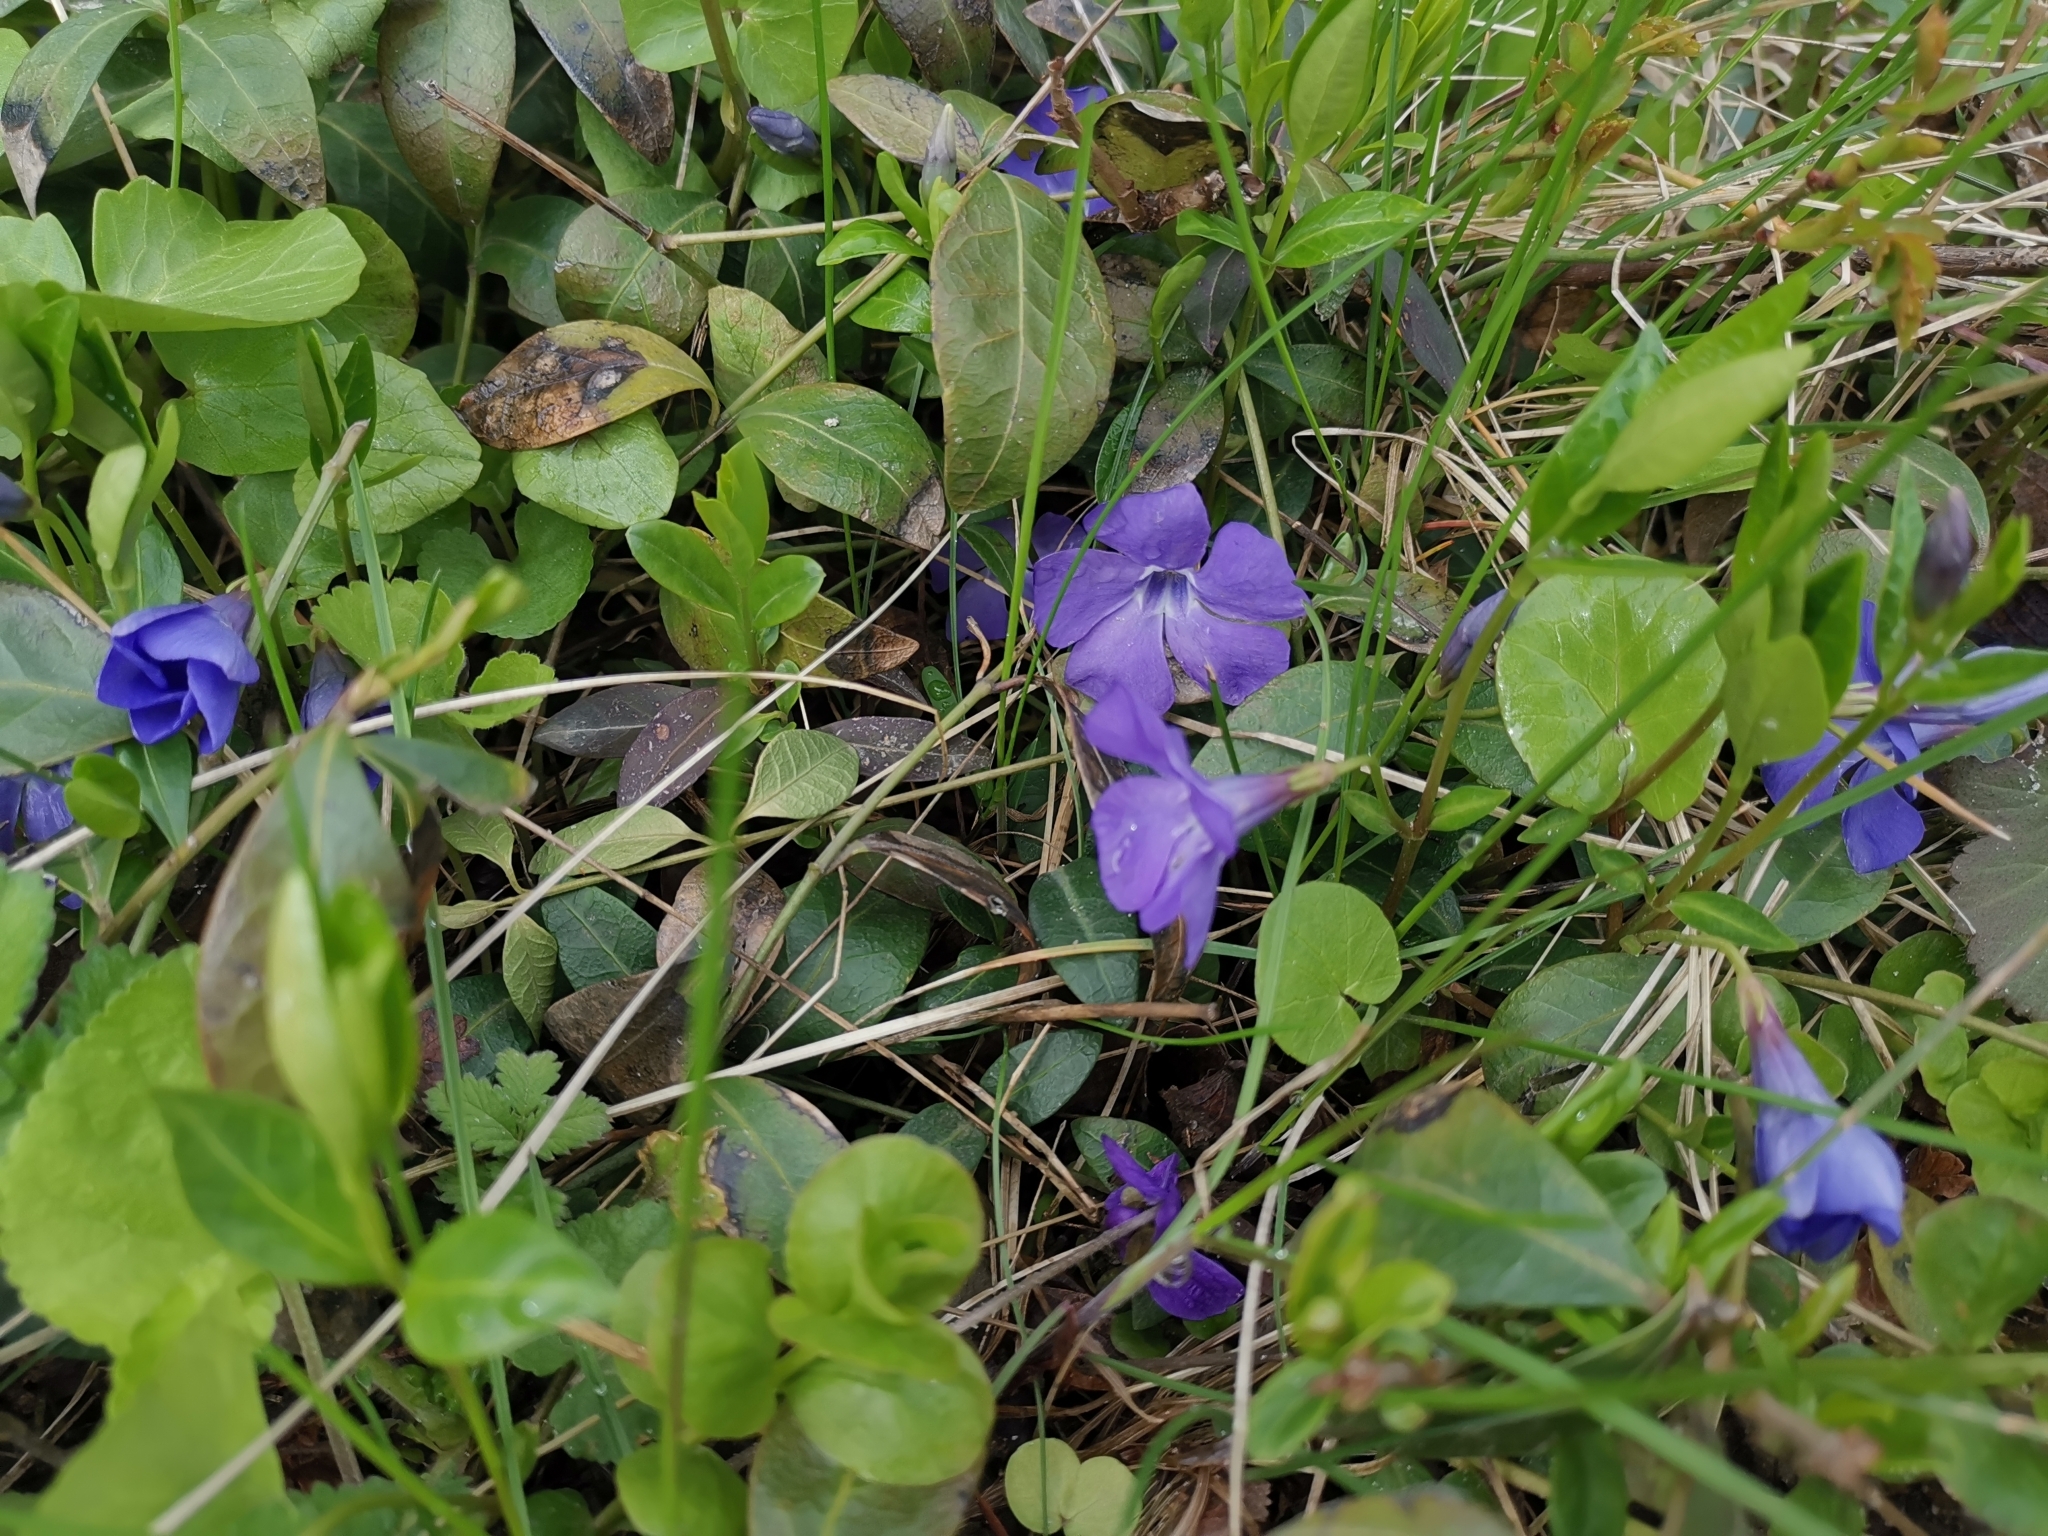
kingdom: Plantae
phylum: Tracheophyta
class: Magnoliopsida
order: Gentianales
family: Apocynaceae
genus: Vinca
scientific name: Vinca minor
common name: Lesser periwinkle
